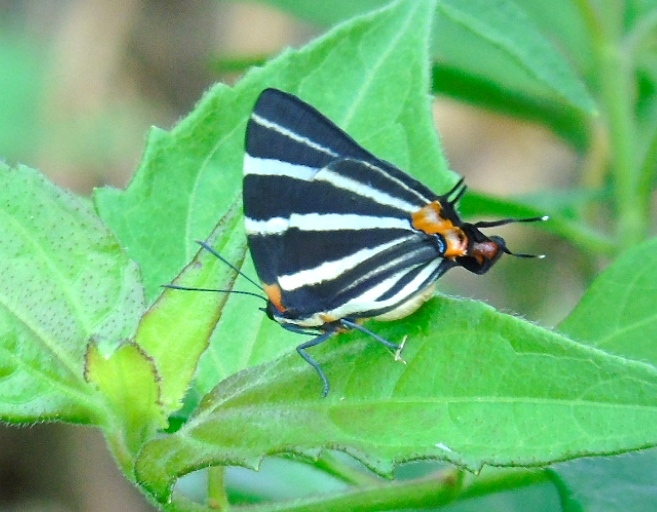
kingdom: Animalia
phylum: Arthropoda
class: Insecta
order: Lepidoptera
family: Lycaenidae
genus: Thecla
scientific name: Thecla bathildis
